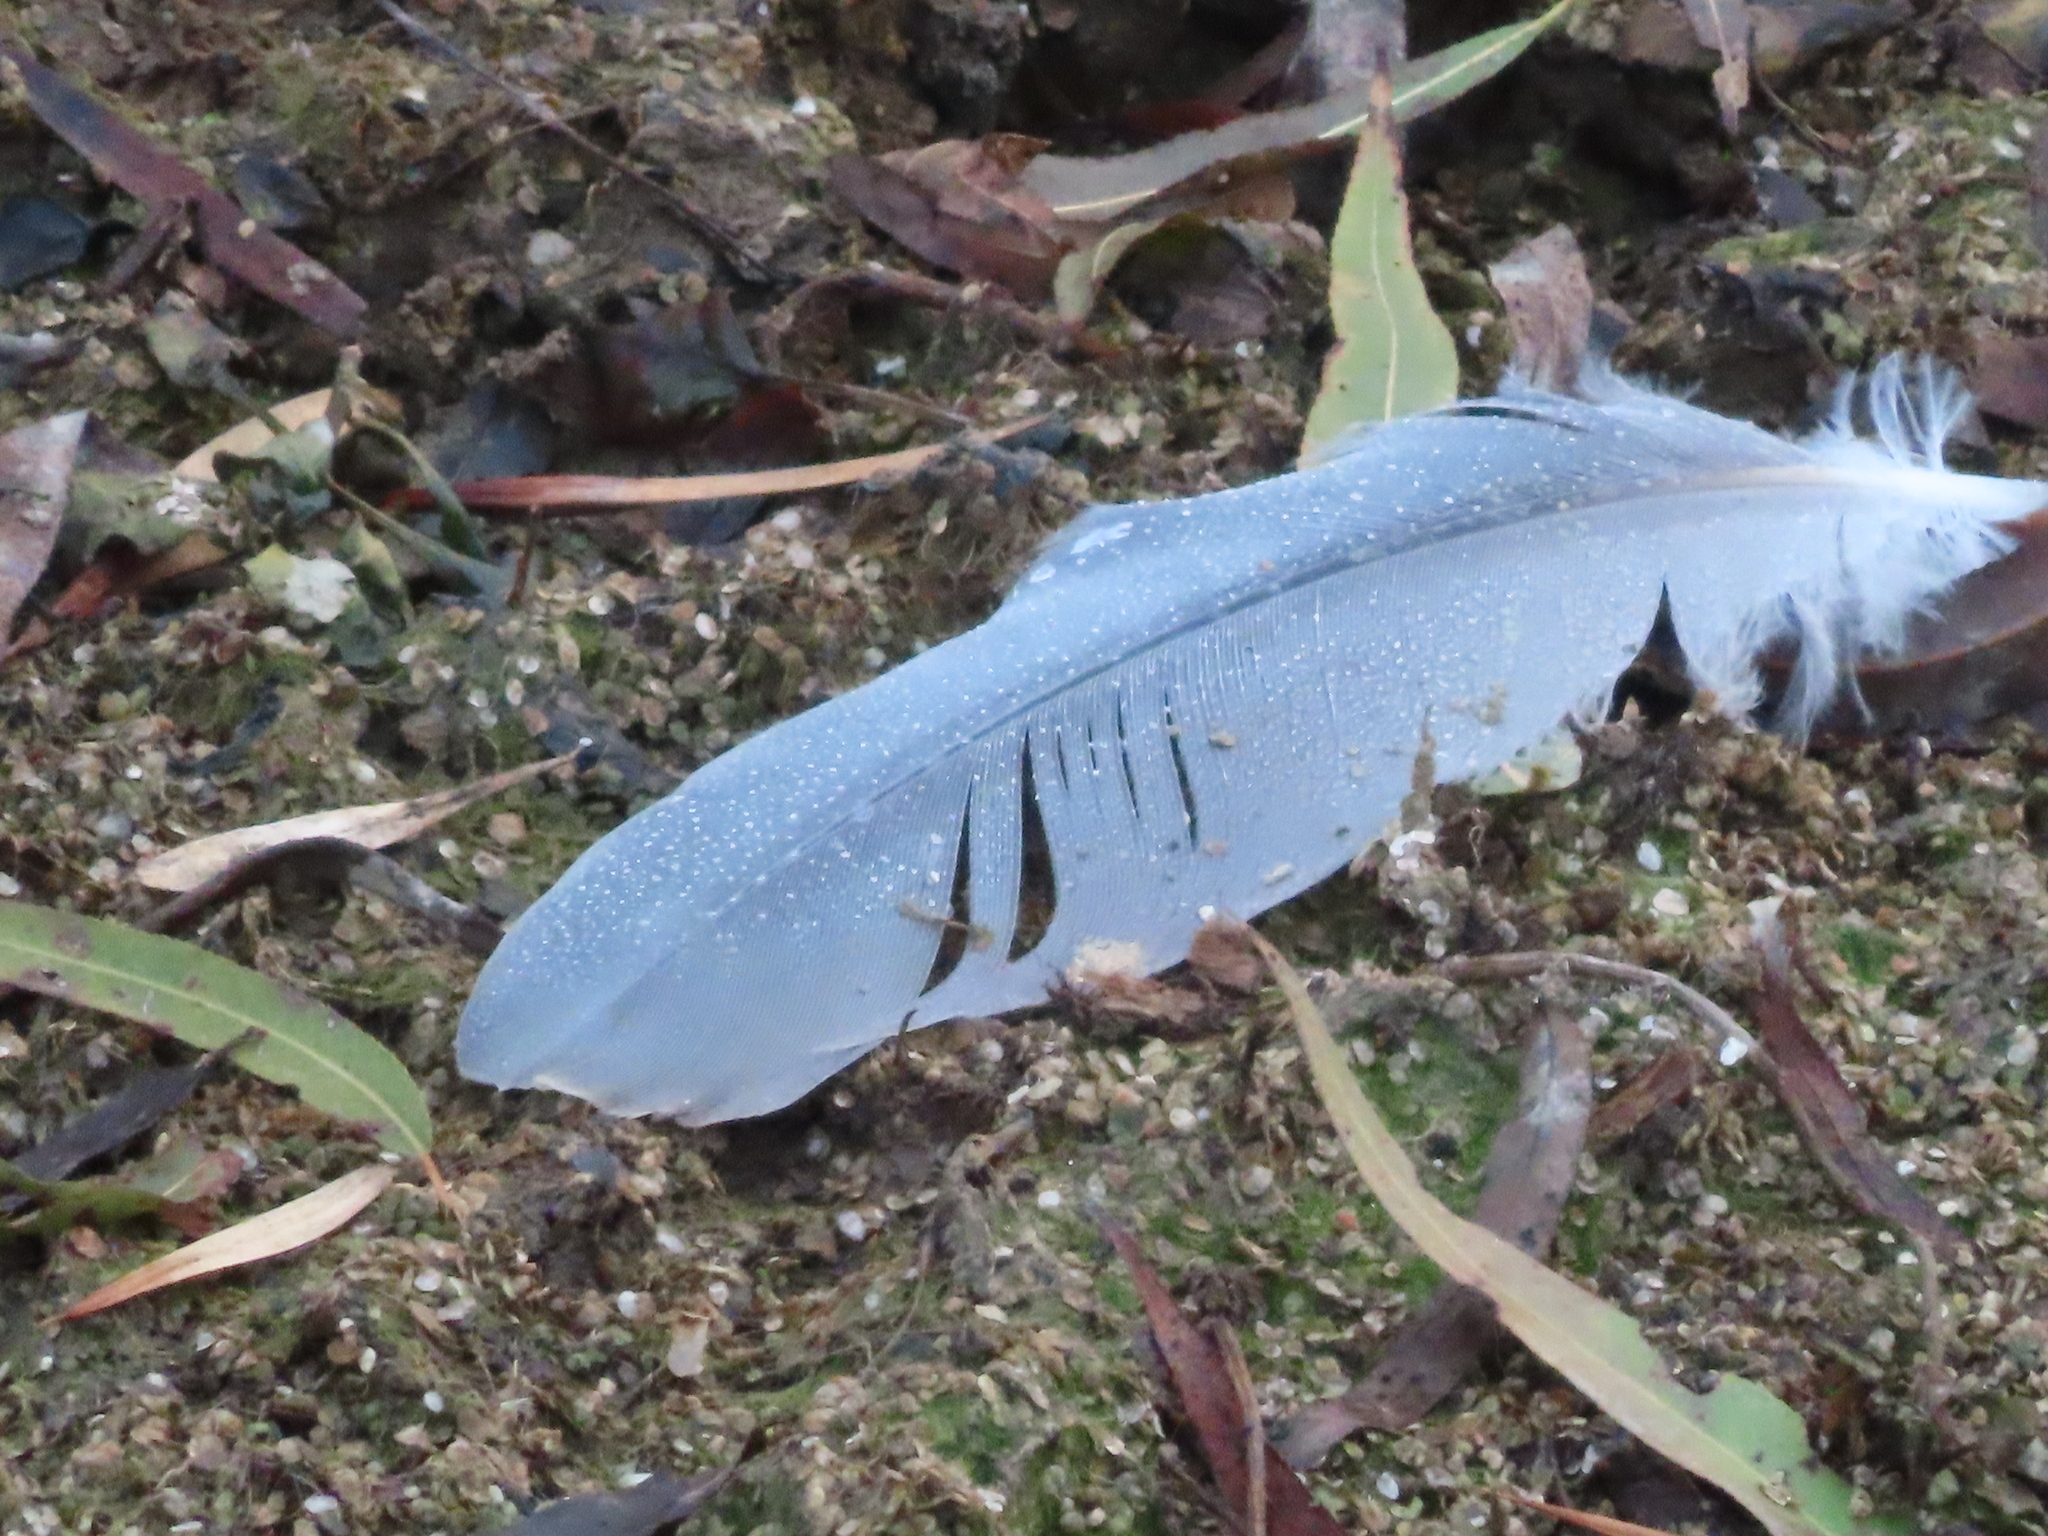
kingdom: Animalia
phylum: Chordata
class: Aves
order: Pelecaniformes
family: Ardeidae
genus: Ardea
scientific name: Ardea herodias
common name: Great blue heron
